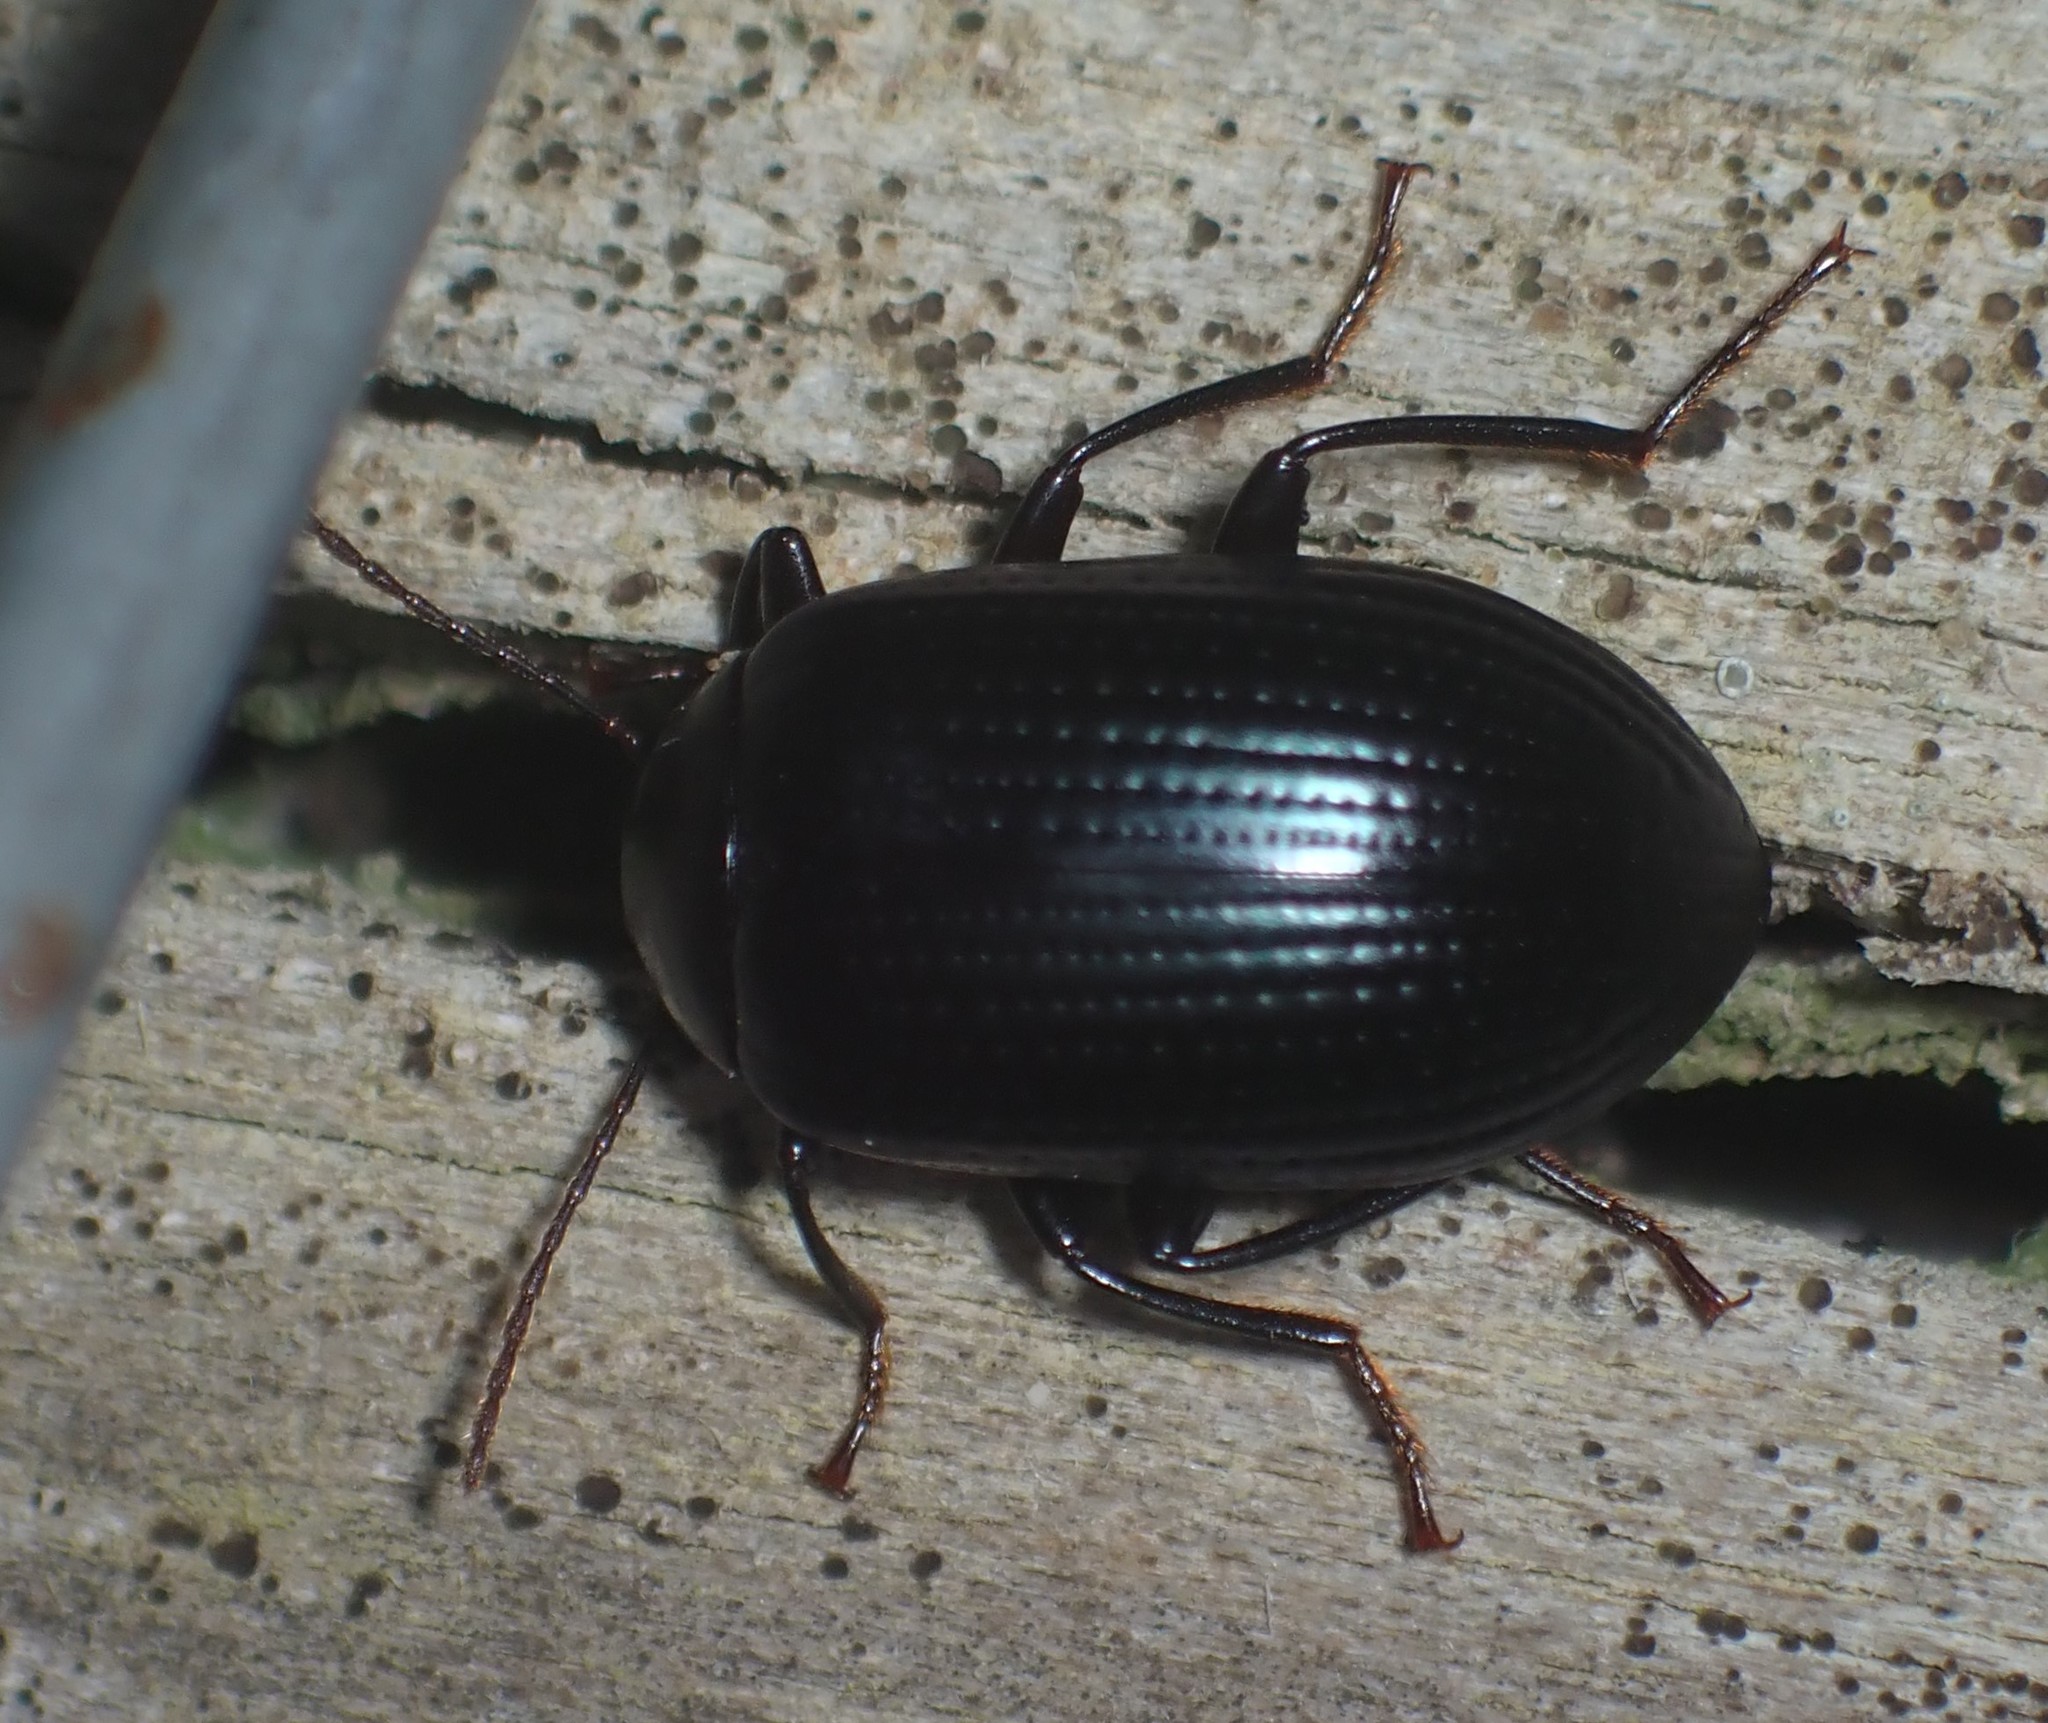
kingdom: Animalia
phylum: Arthropoda
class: Insecta
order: Coleoptera
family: Tenebrionidae
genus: Amarygmus
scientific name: Amarygmus
